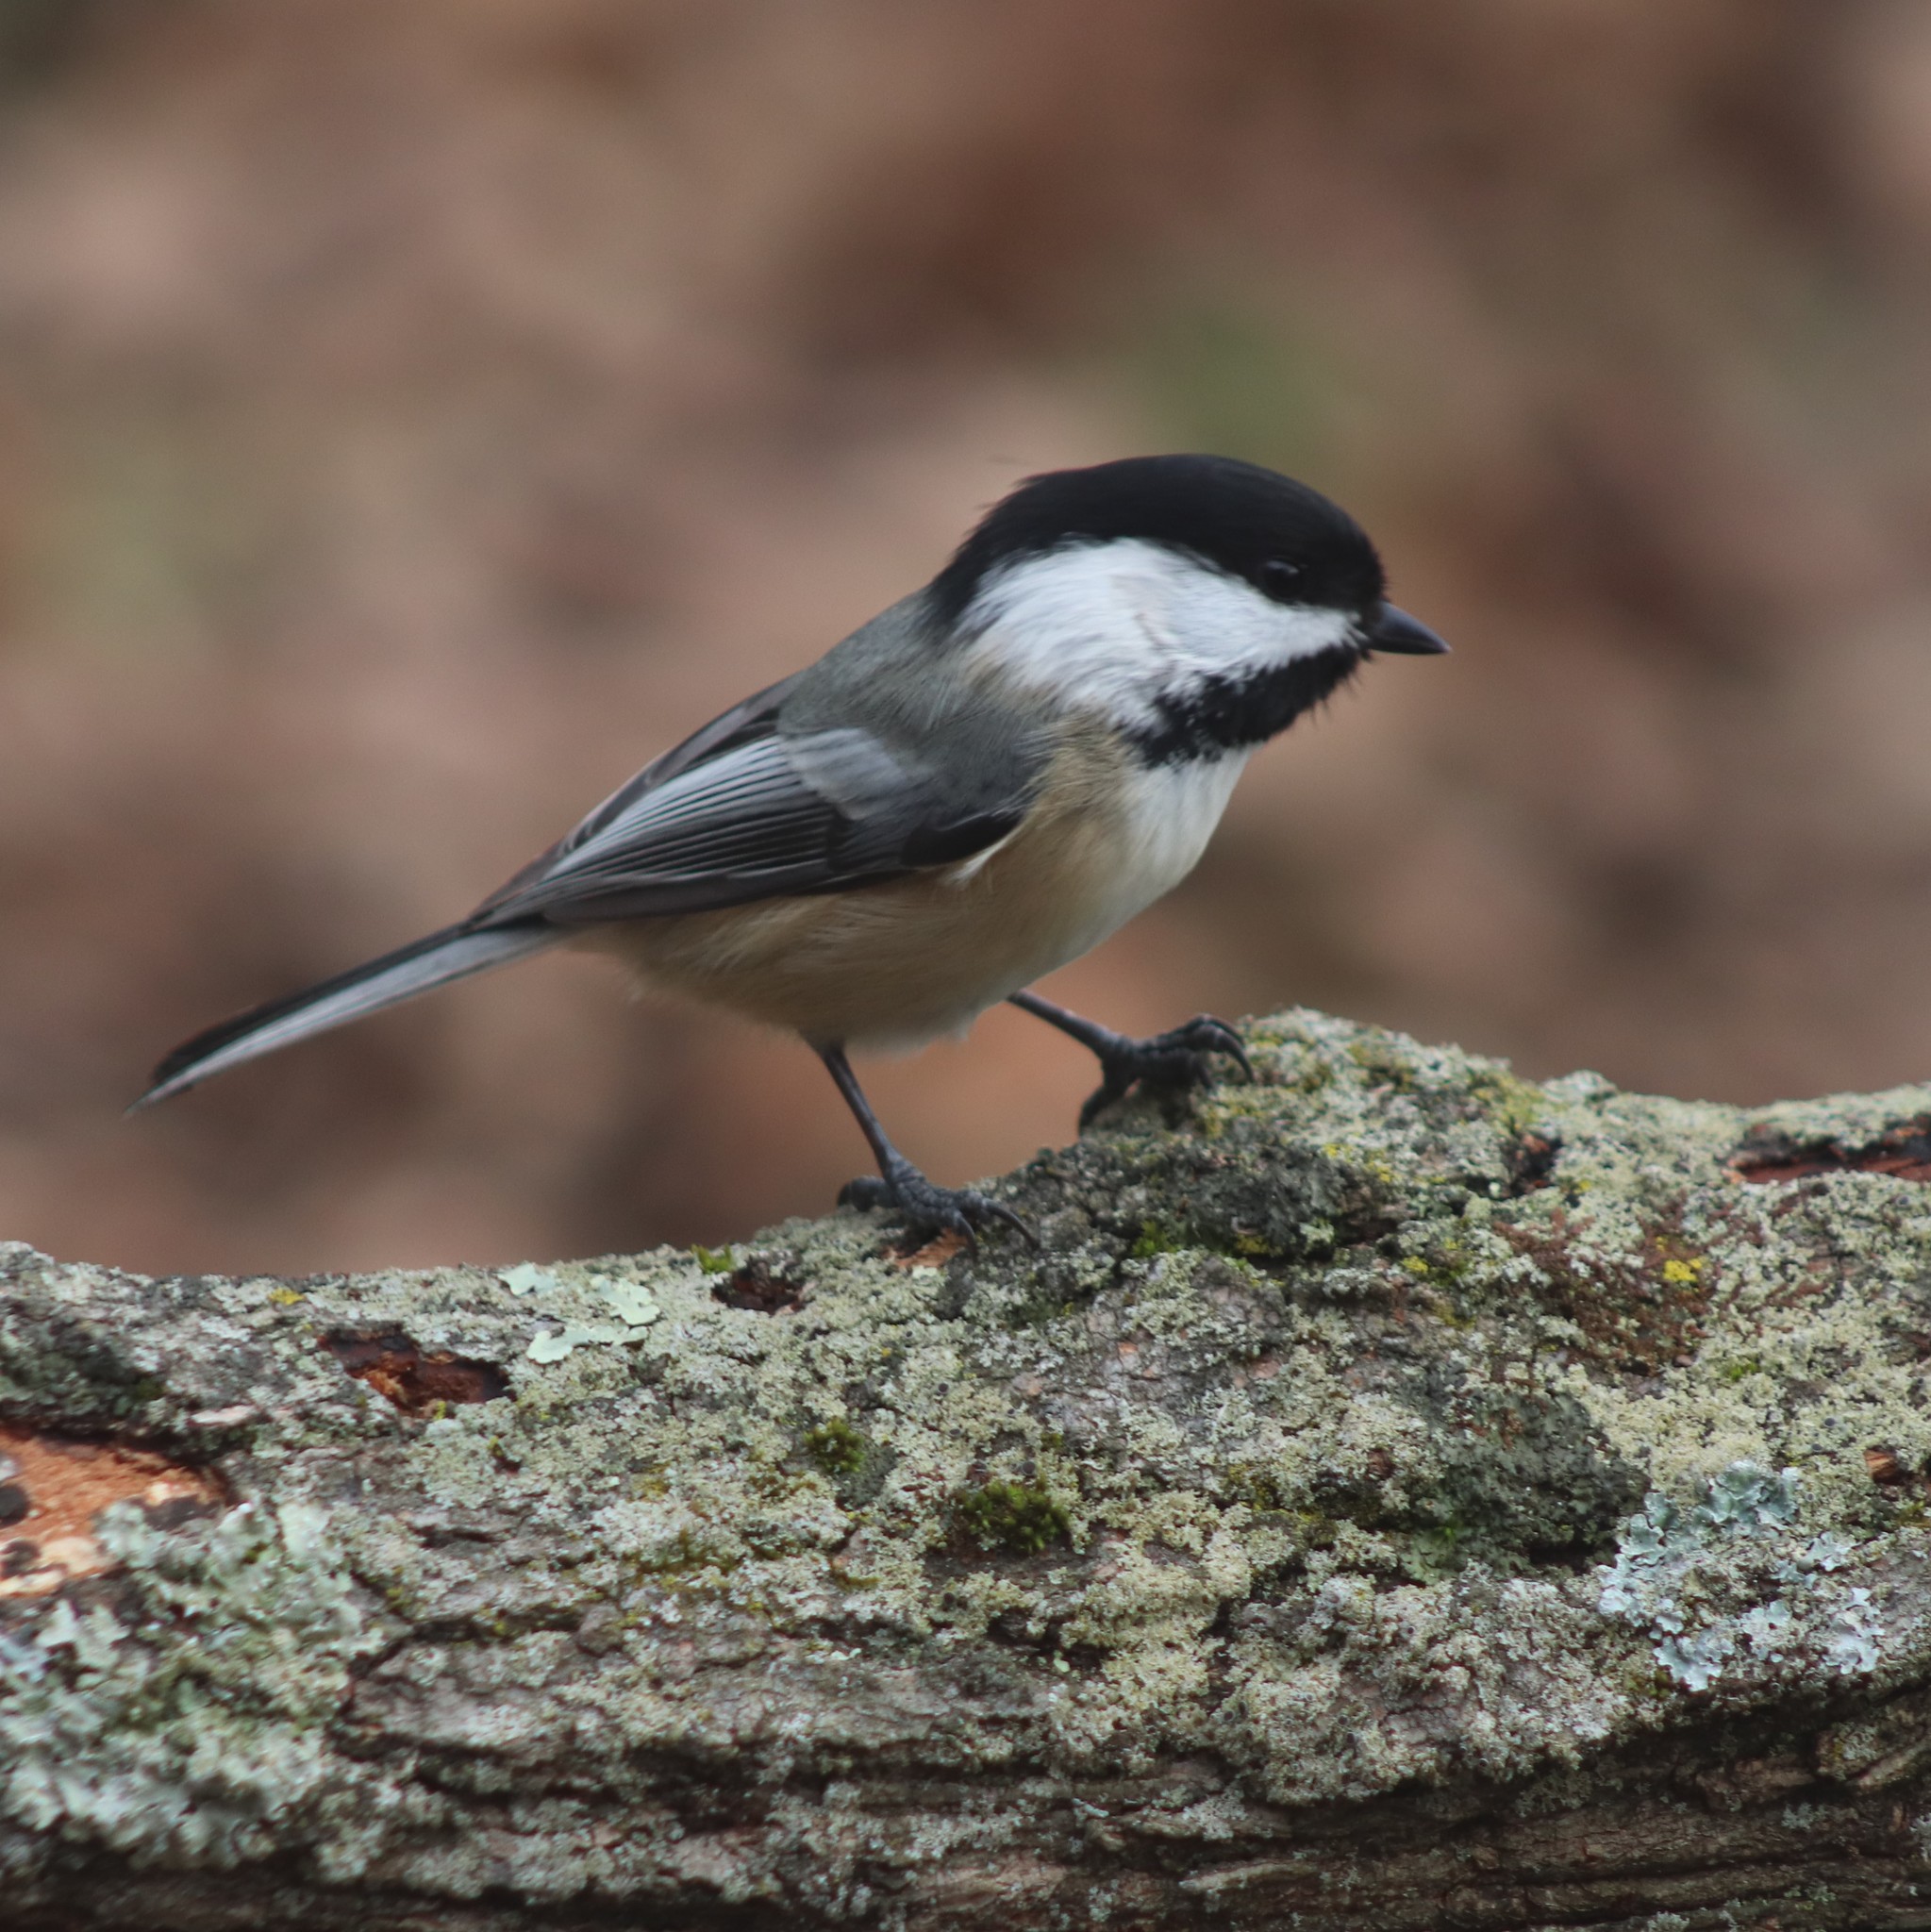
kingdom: Animalia
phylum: Chordata
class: Aves
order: Passeriformes
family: Paridae
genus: Poecile
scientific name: Poecile atricapillus
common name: Black-capped chickadee
